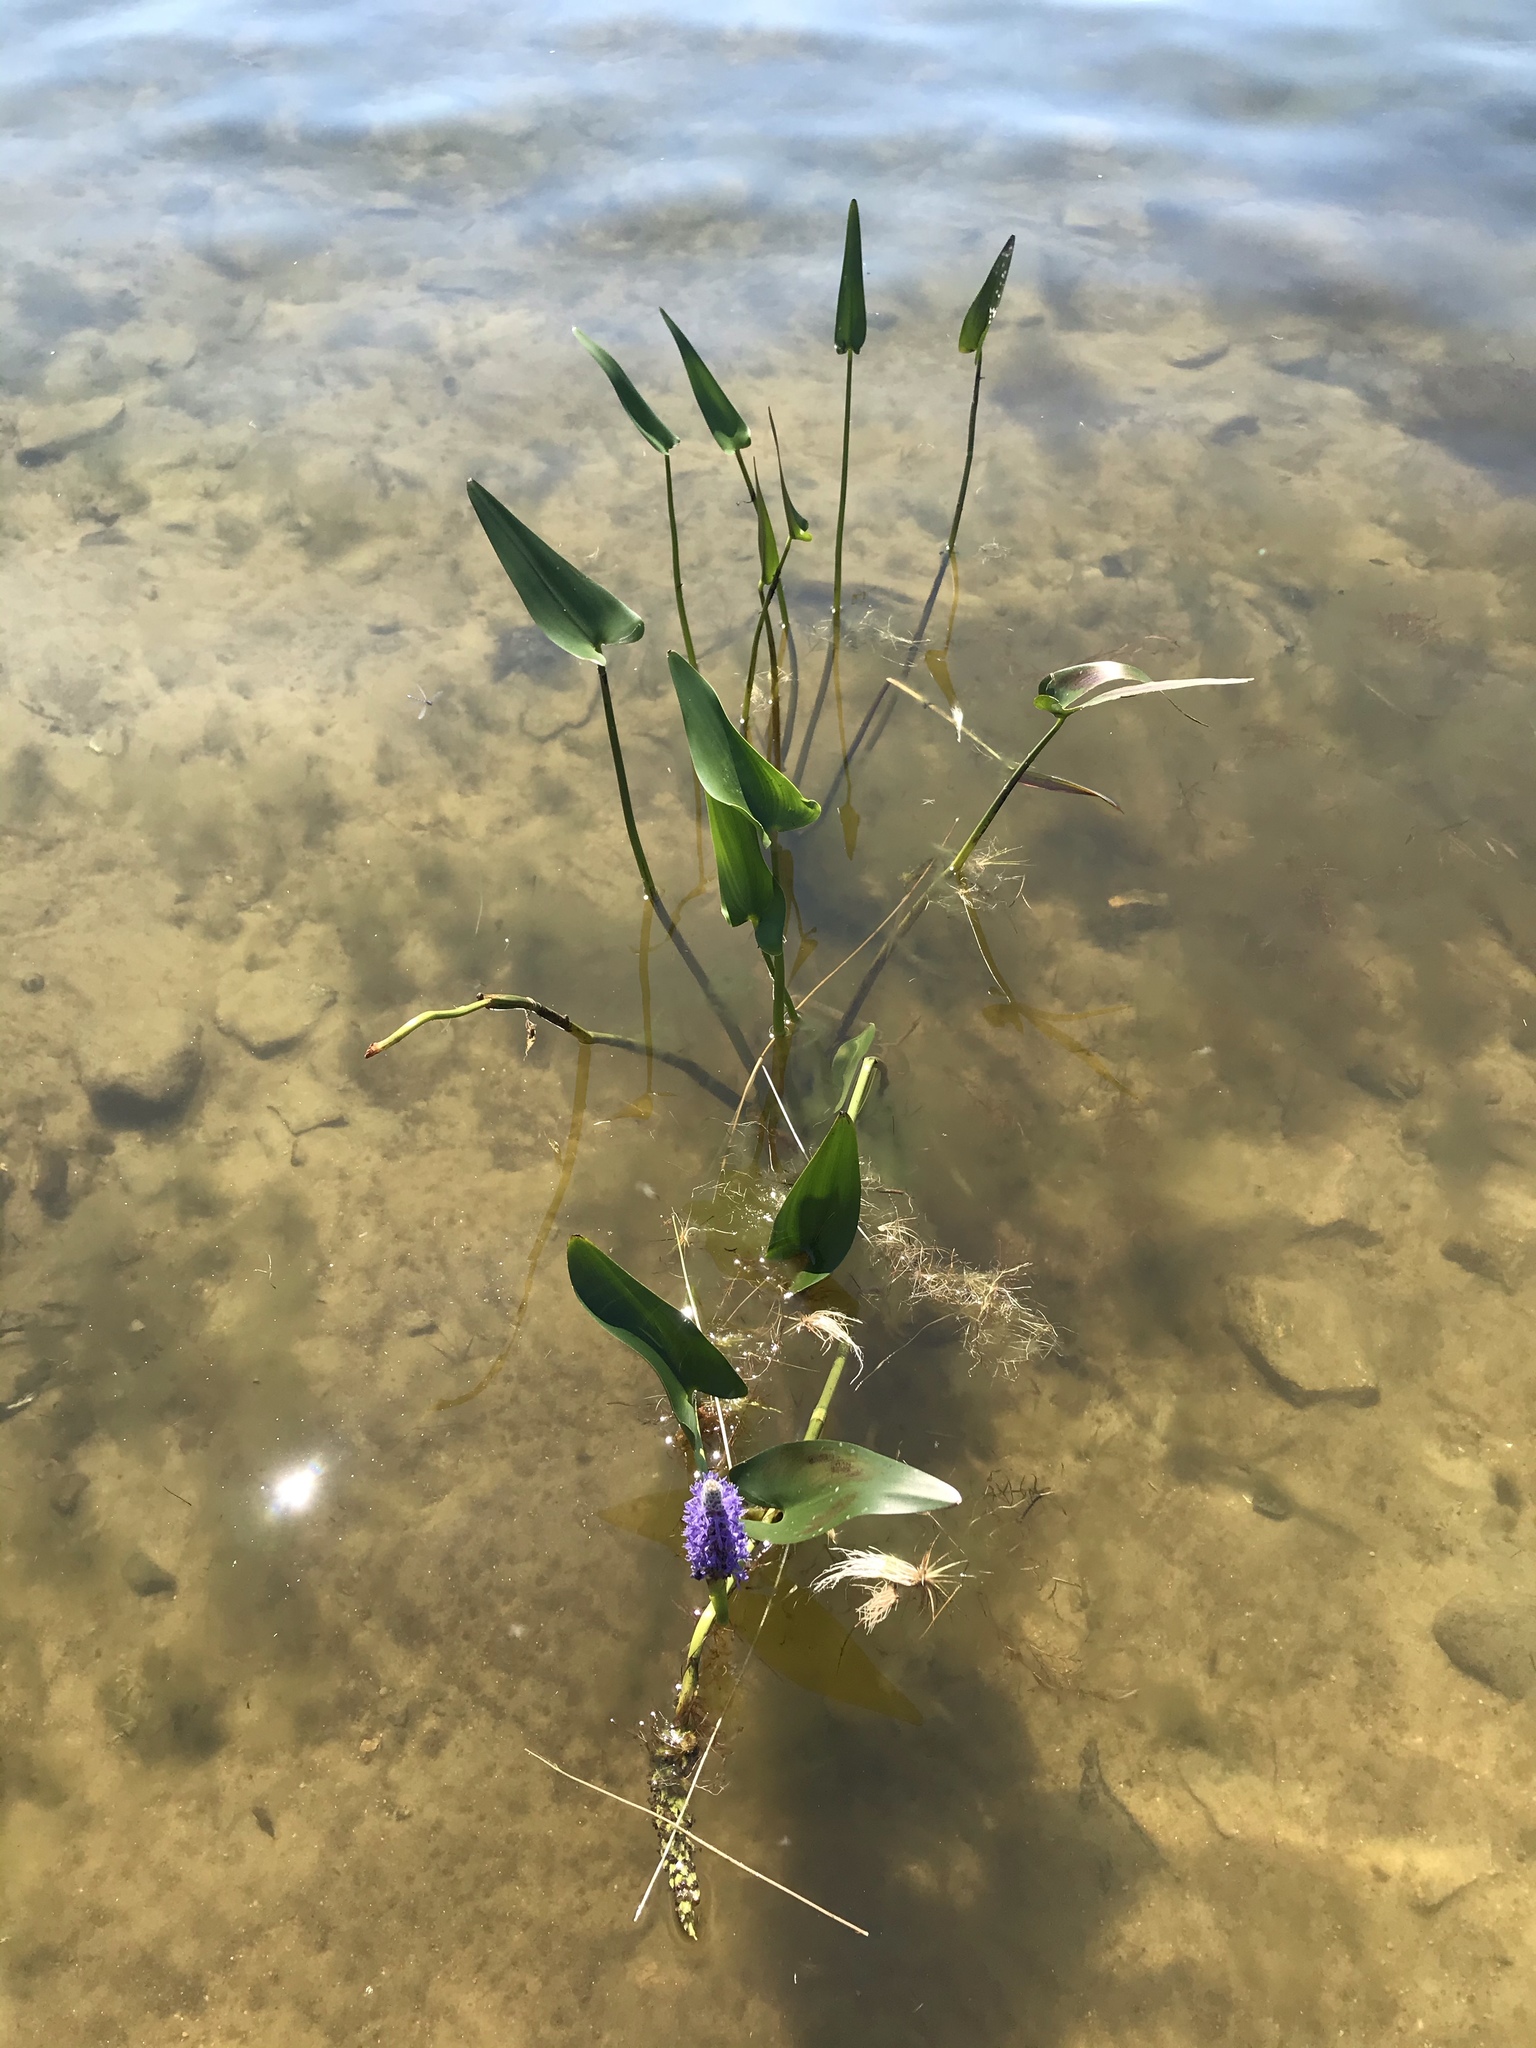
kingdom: Plantae
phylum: Tracheophyta
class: Liliopsida
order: Commelinales
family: Pontederiaceae
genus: Pontederia
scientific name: Pontederia cordata
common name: Pickerelweed
